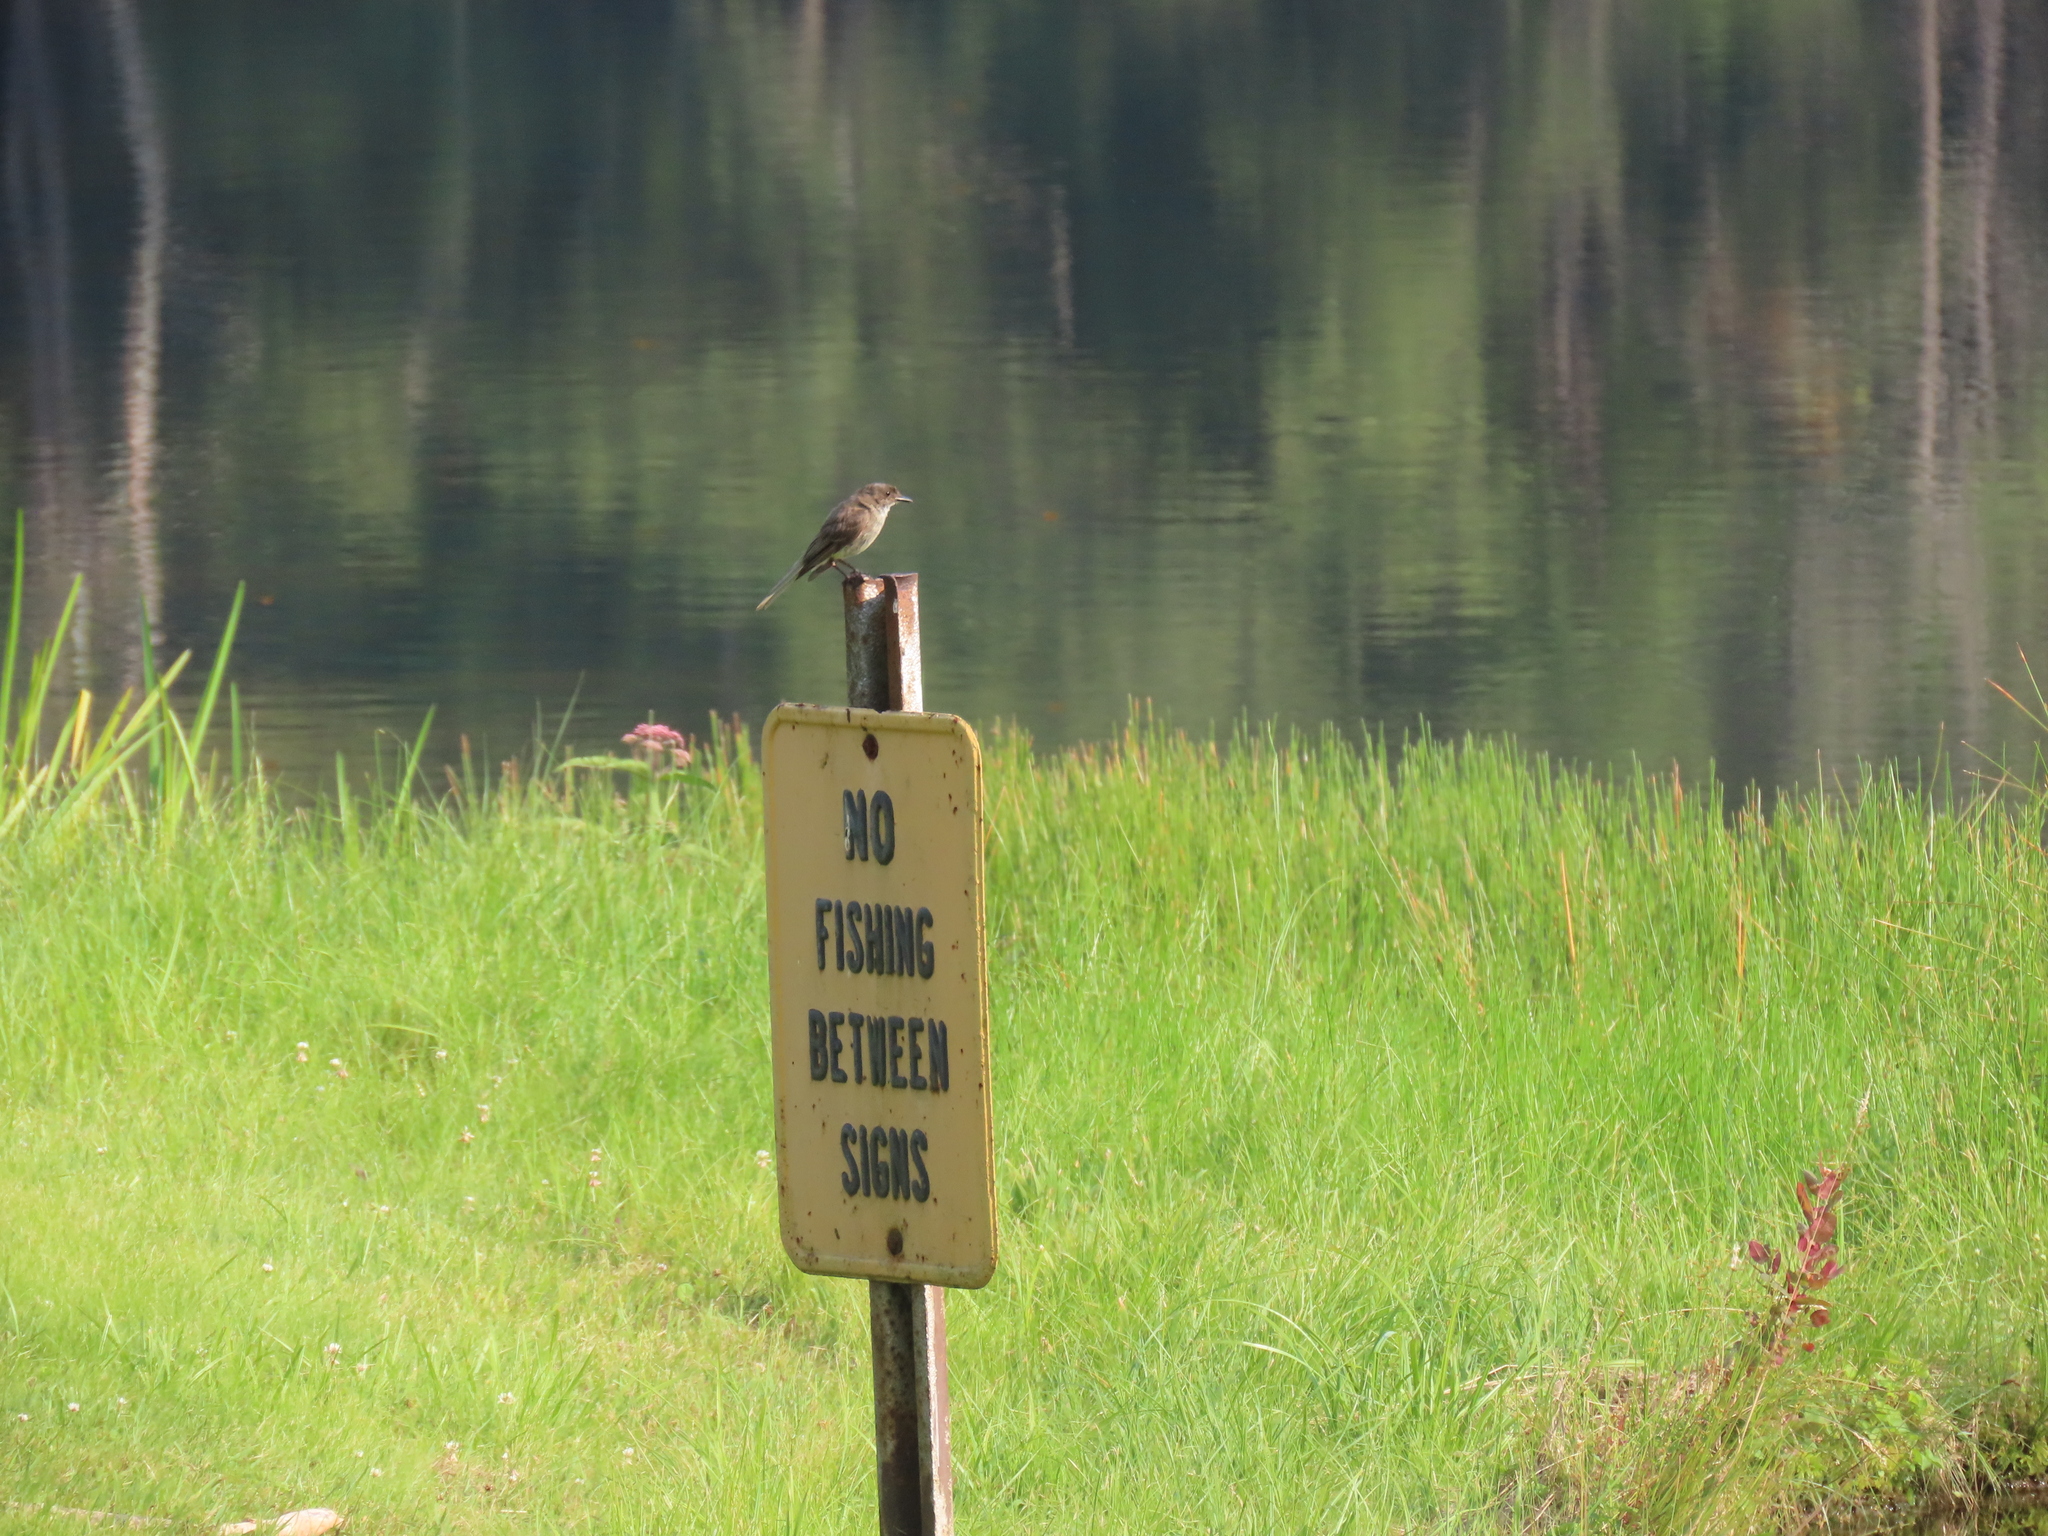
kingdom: Animalia
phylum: Chordata
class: Aves
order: Passeriformes
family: Tyrannidae
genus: Sayornis
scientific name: Sayornis phoebe
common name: Eastern phoebe
